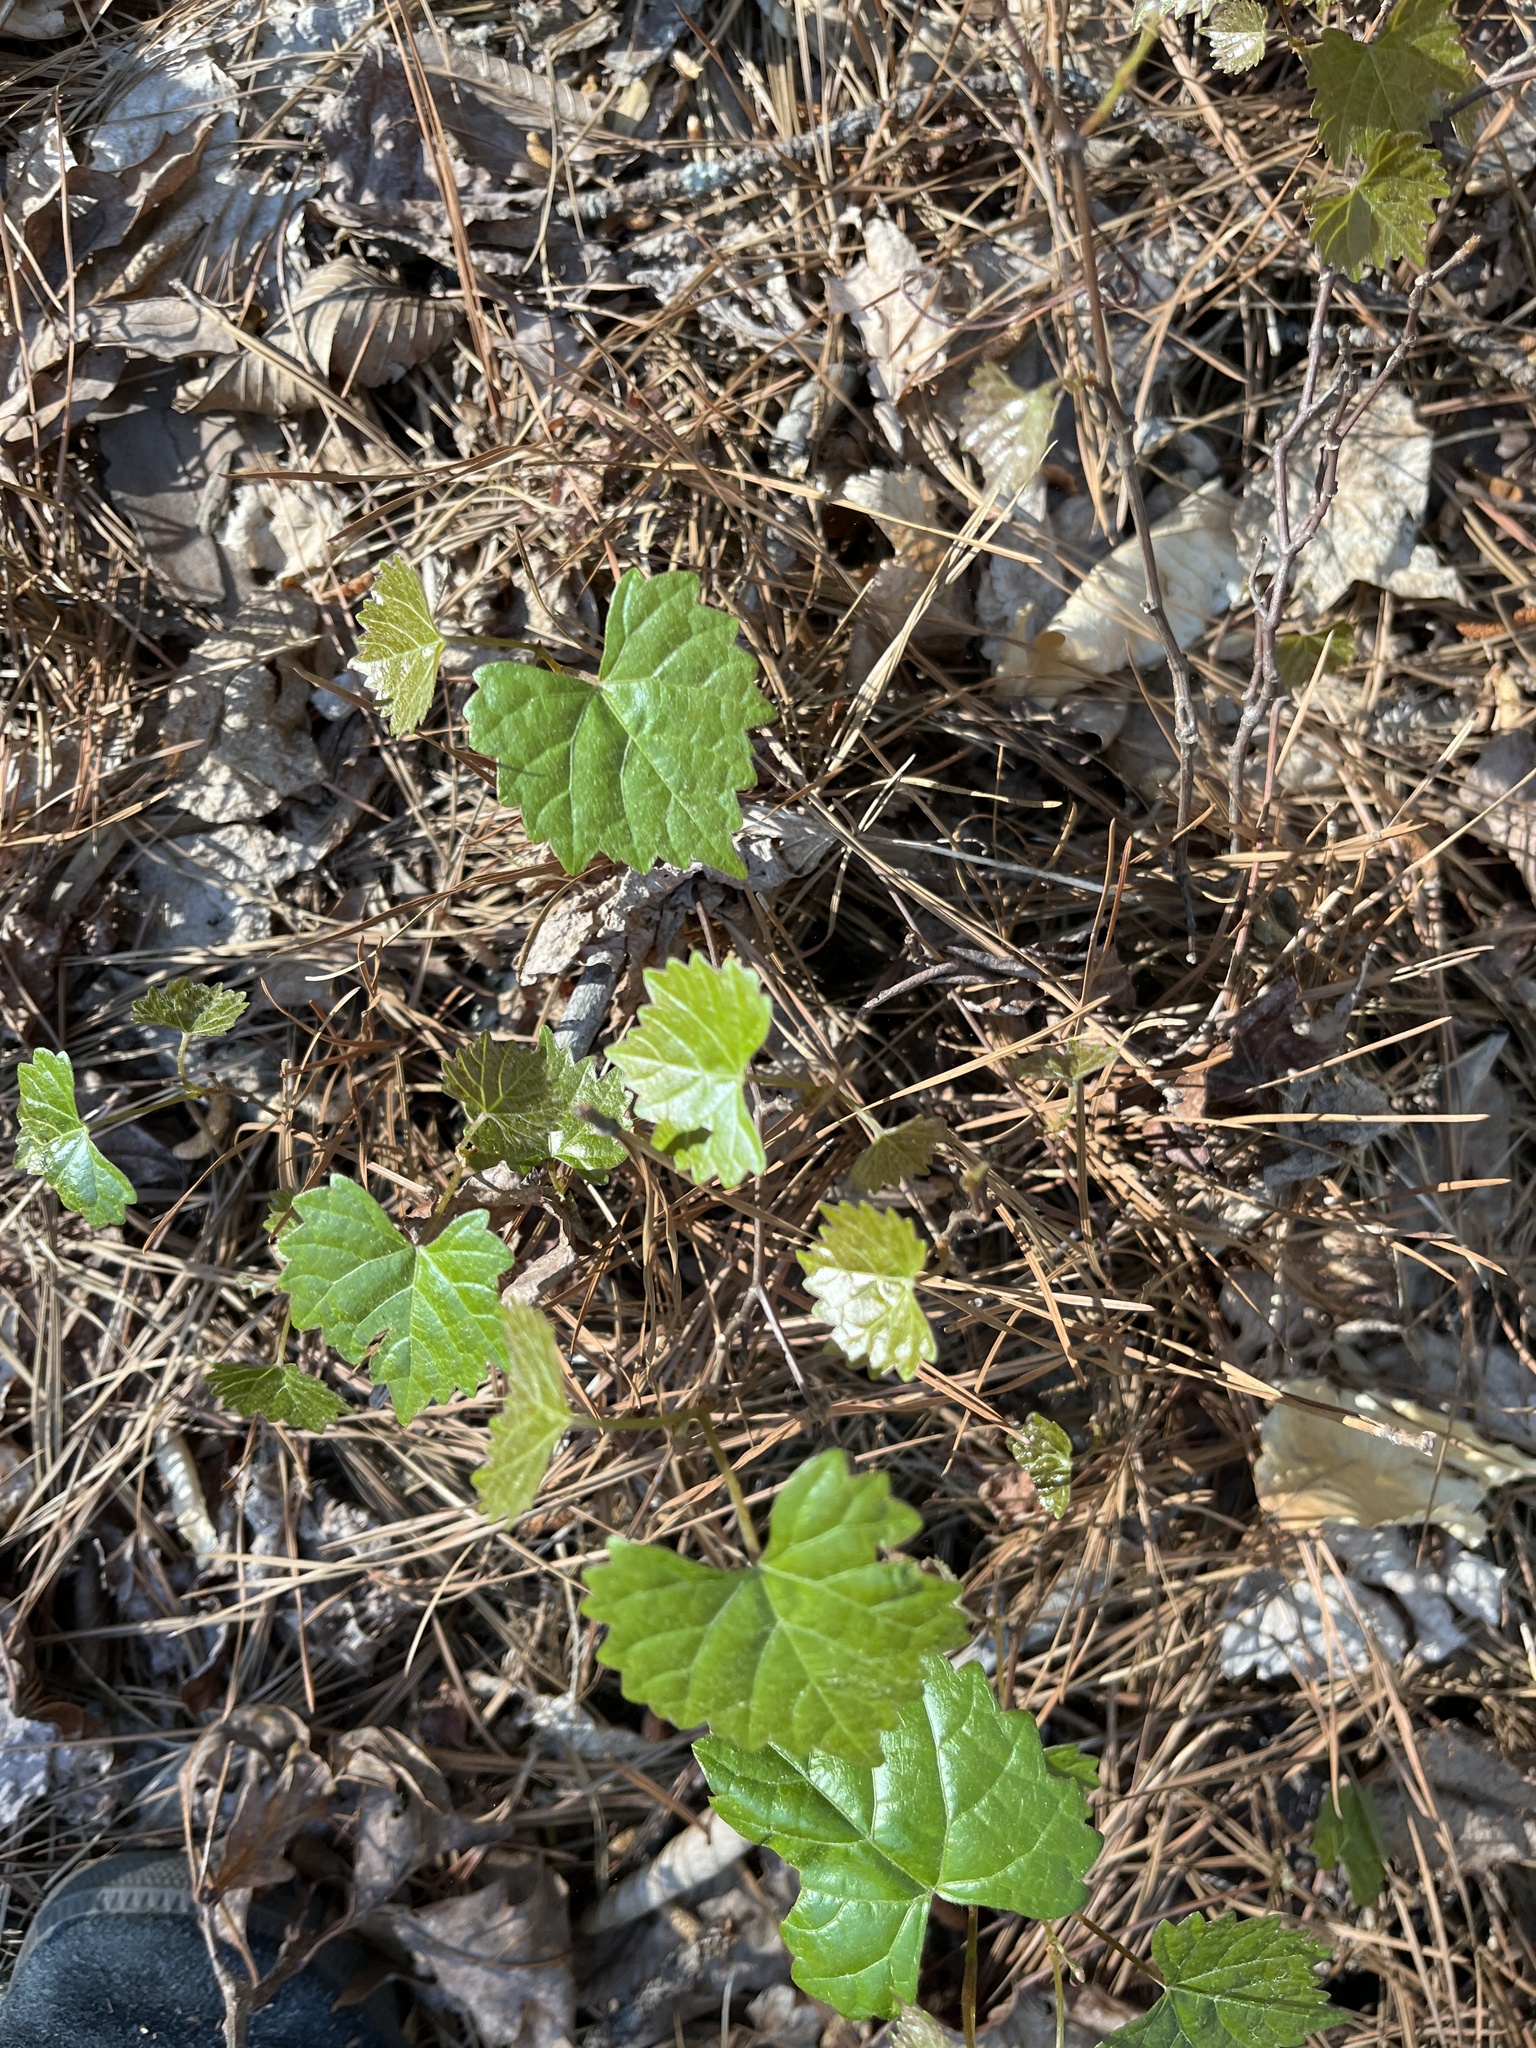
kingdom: Plantae
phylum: Tracheophyta
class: Magnoliopsida
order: Vitales
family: Vitaceae
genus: Vitis
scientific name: Vitis rotundifolia
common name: Muscadine grape
